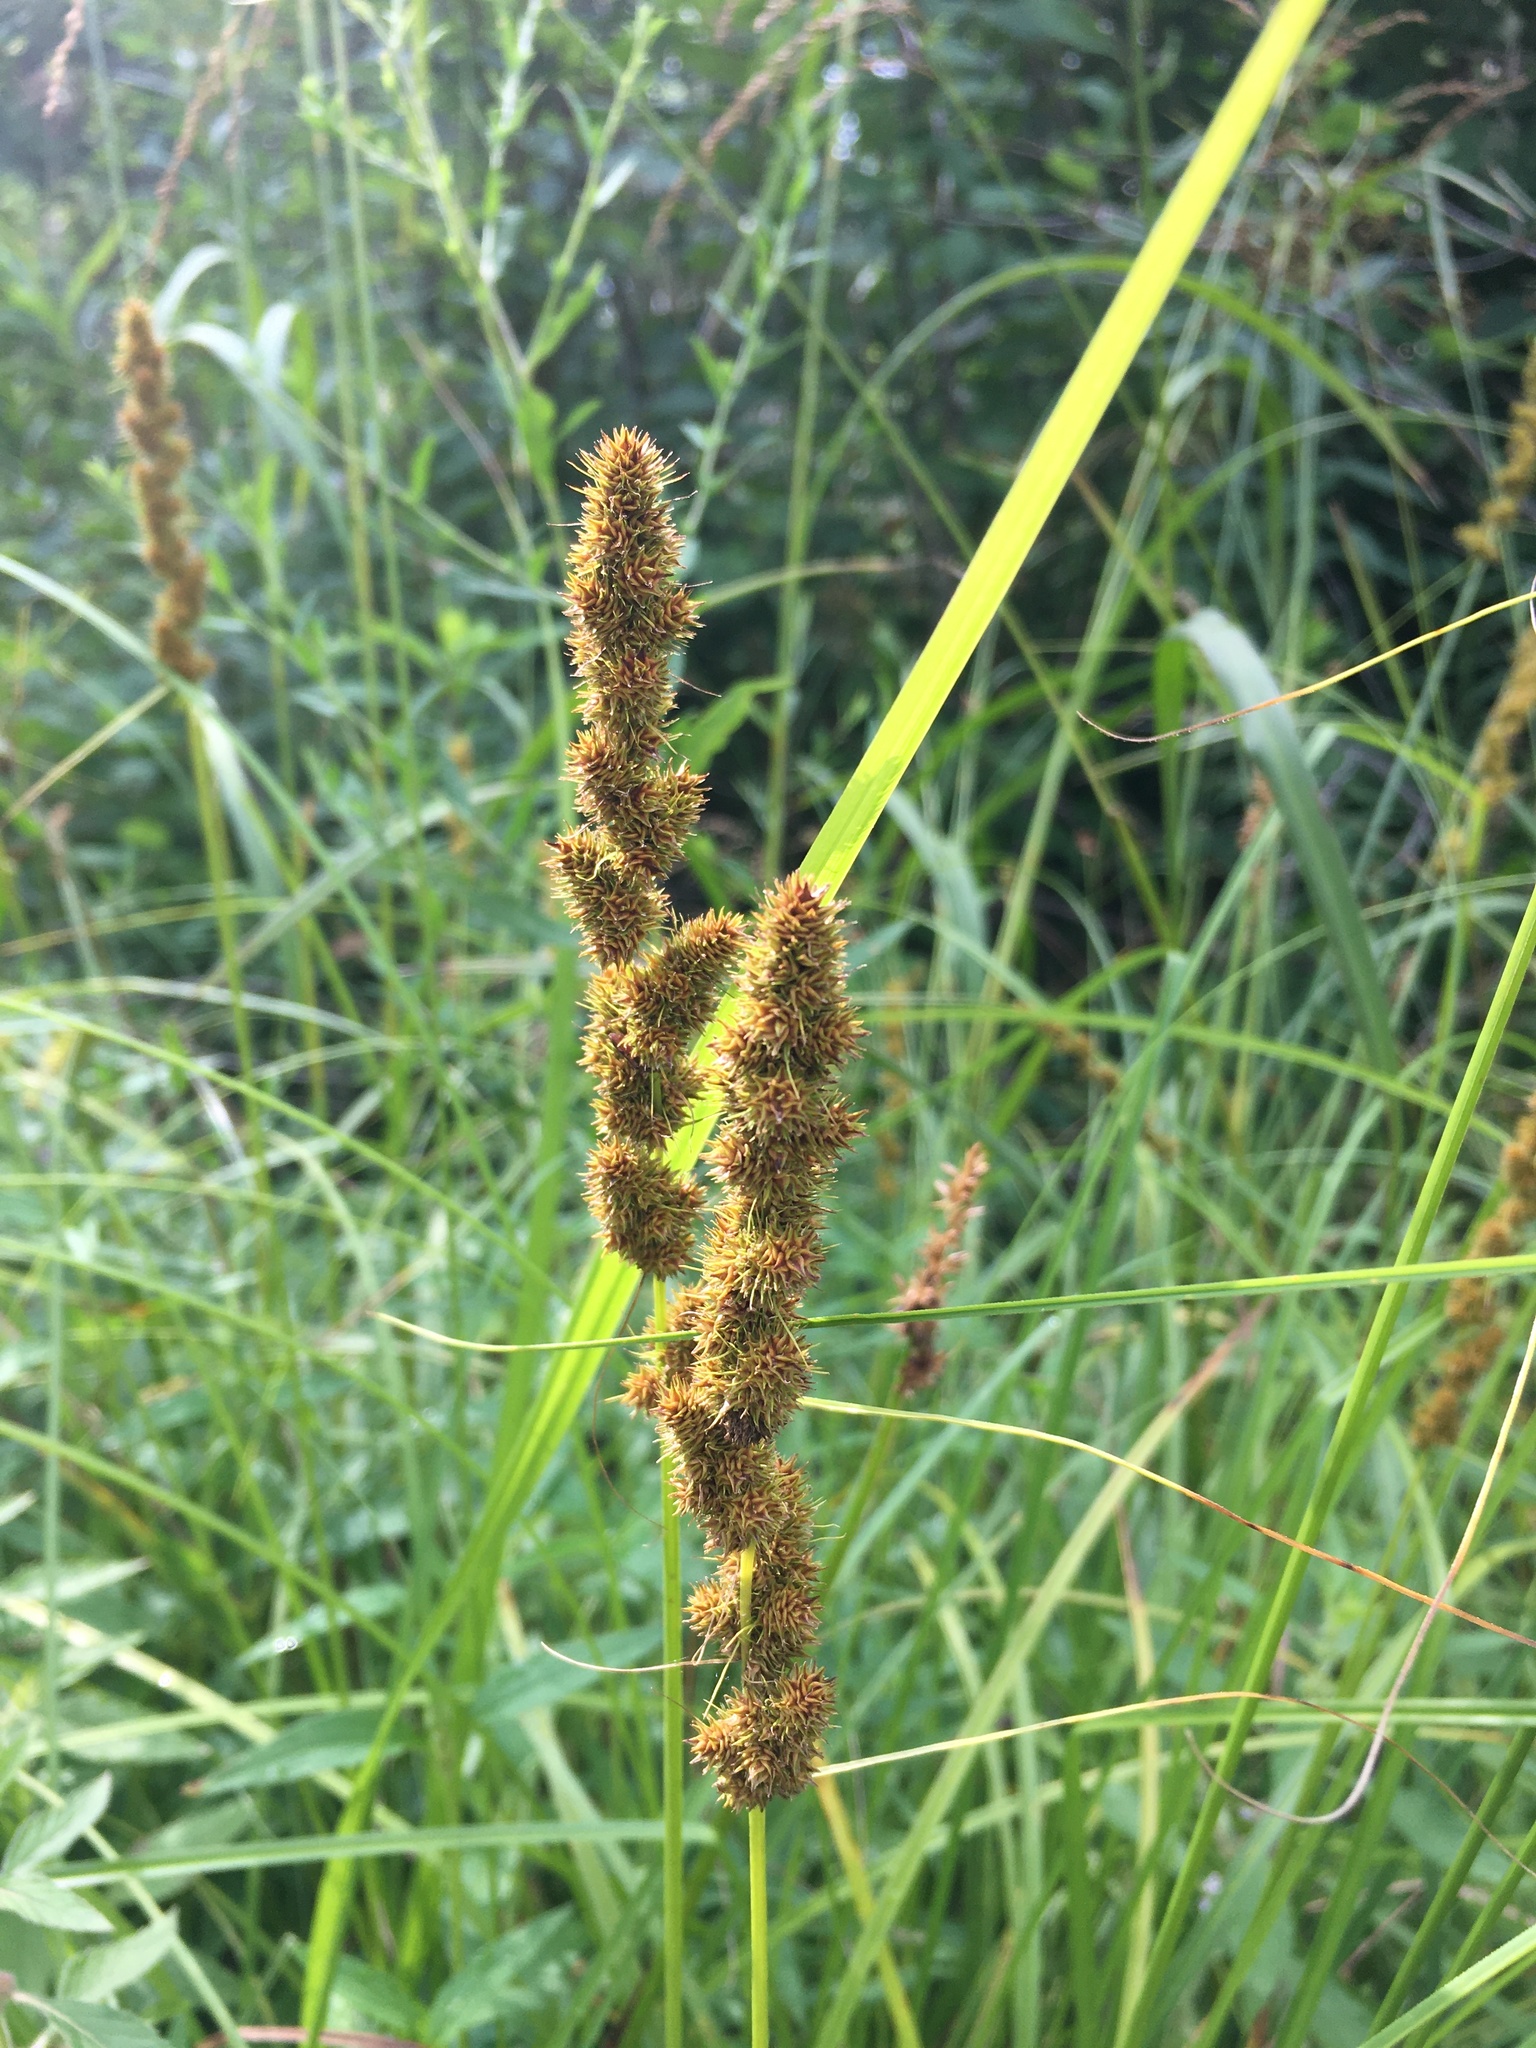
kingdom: Plantae
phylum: Tracheophyta
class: Liliopsida
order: Poales
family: Cyperaceae
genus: Carex
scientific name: Carex vulpinoidea
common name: American fox-sedge
